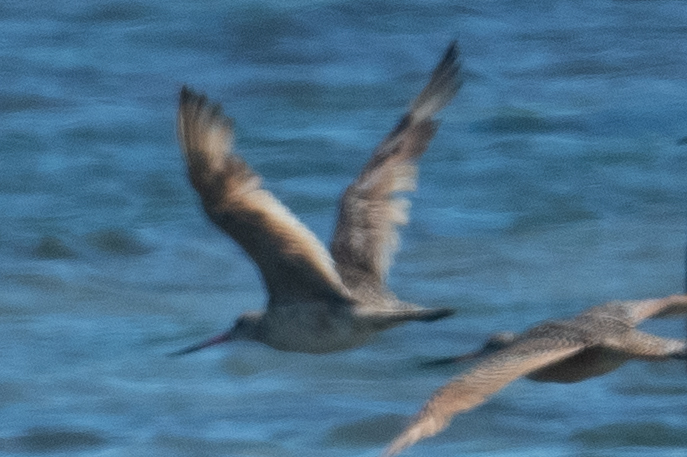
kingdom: Animalia
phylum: Chordata
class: Aves
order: Charadriiformes
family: Scolopacidae
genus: Limosa
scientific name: Limosa fedoa
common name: Marbled godwit
